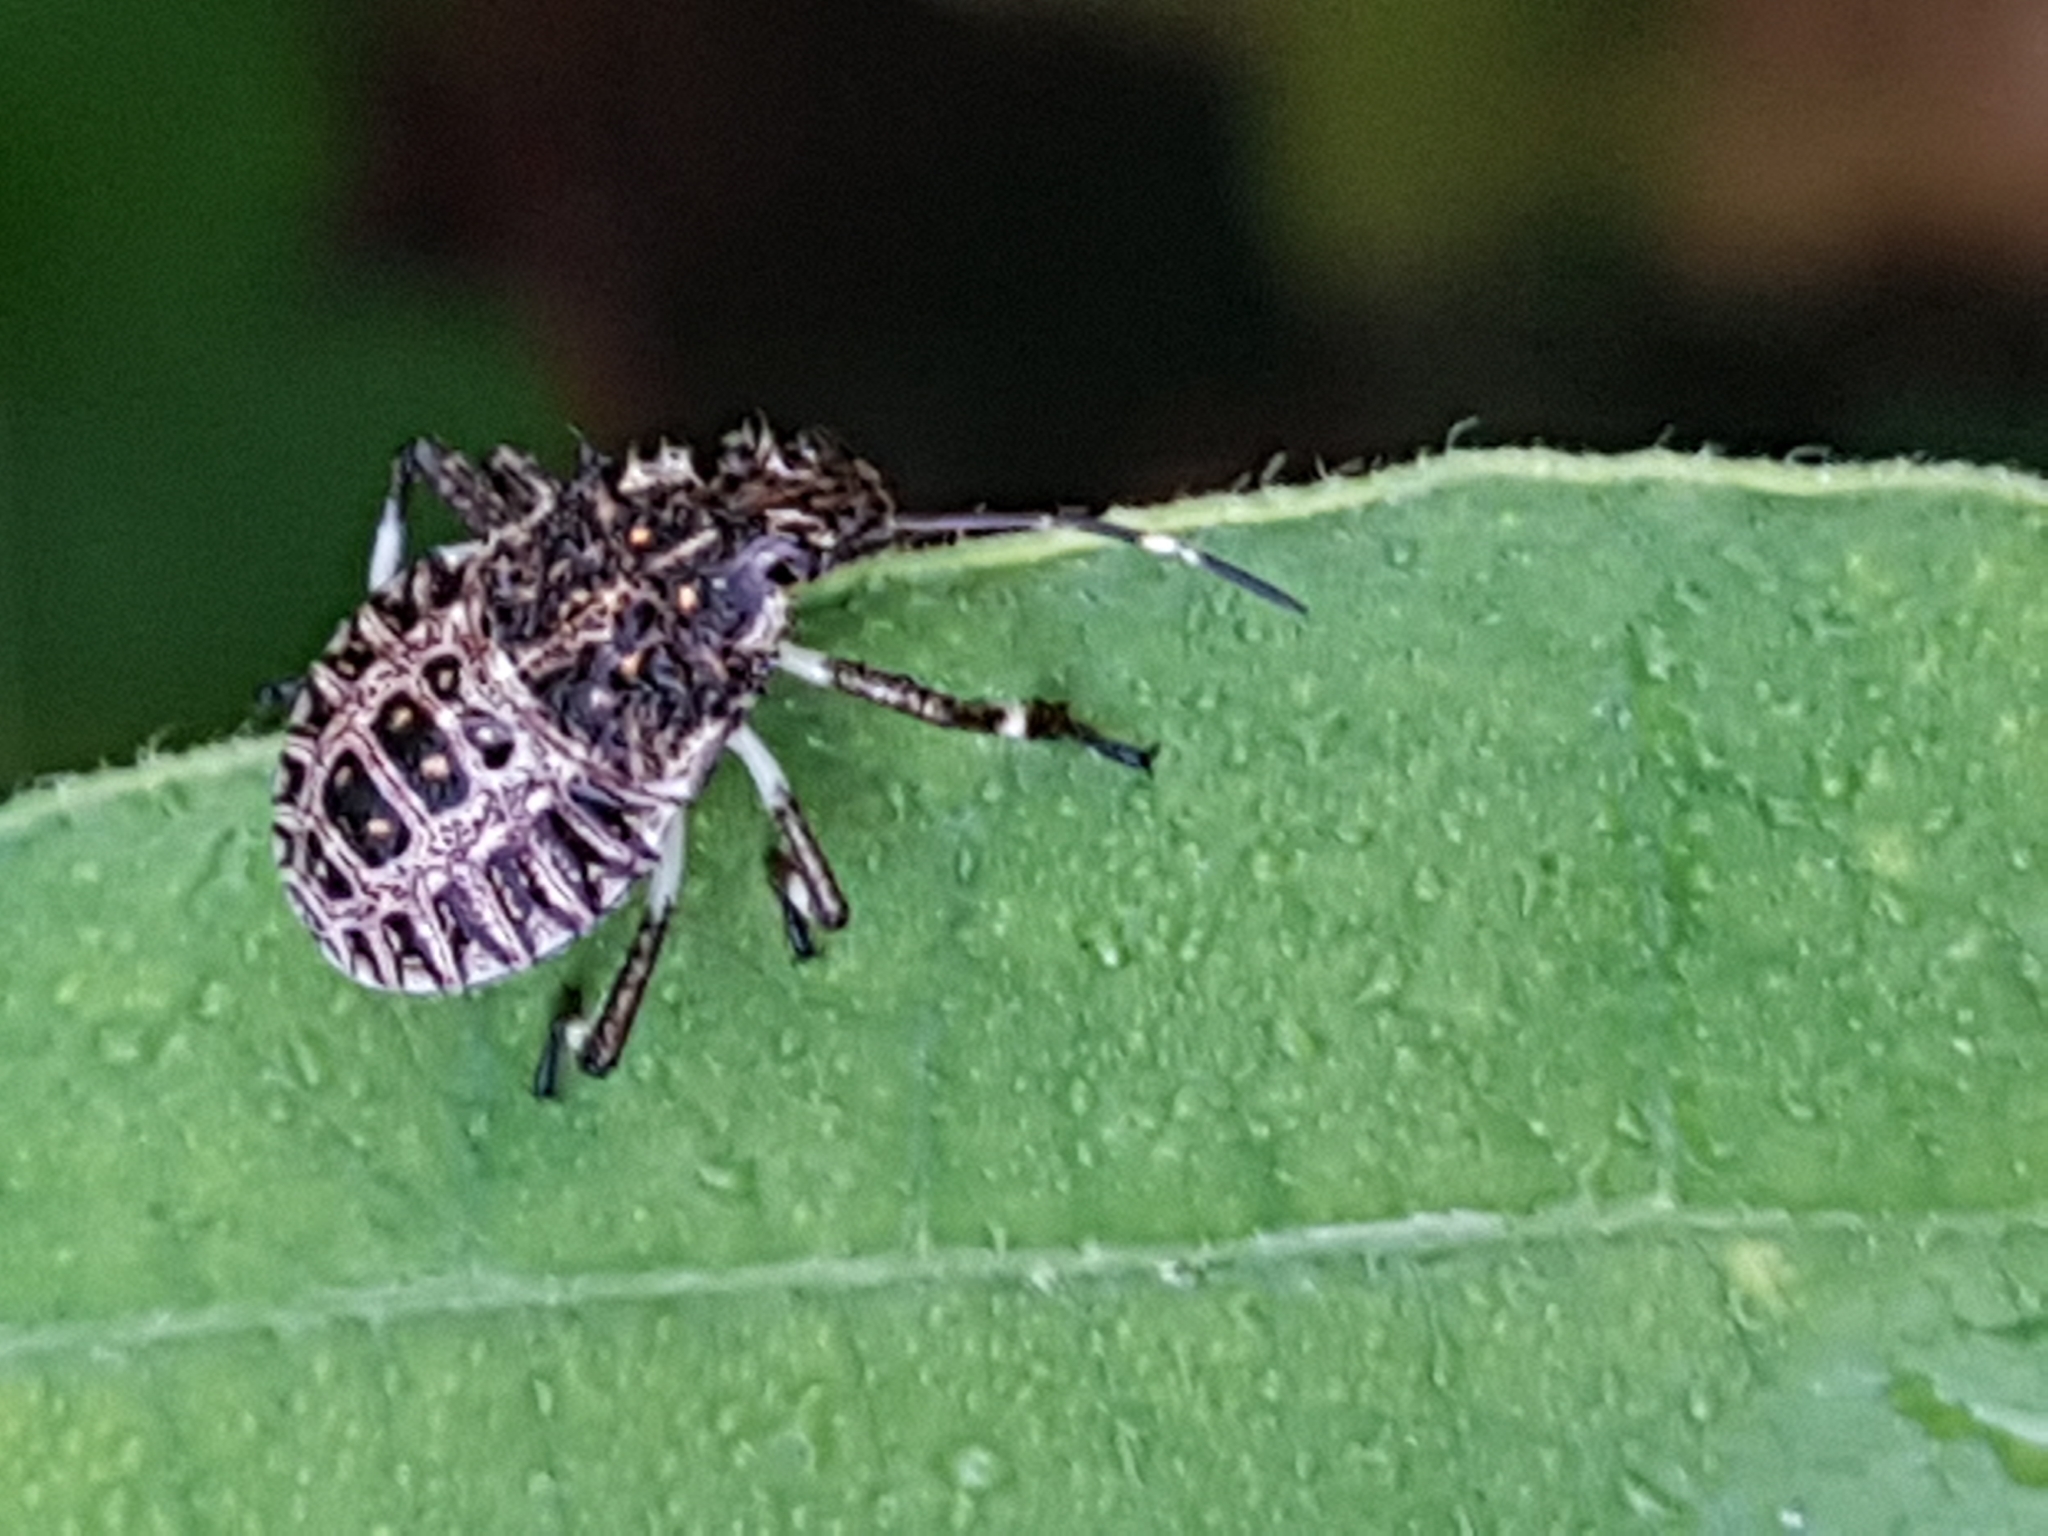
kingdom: Animalia
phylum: Arthropoda
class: Insecta
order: Hemiptera
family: Pentatomidae
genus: Halyomorpha
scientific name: Halyomorpha halys
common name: Brown marmorated stink bug
